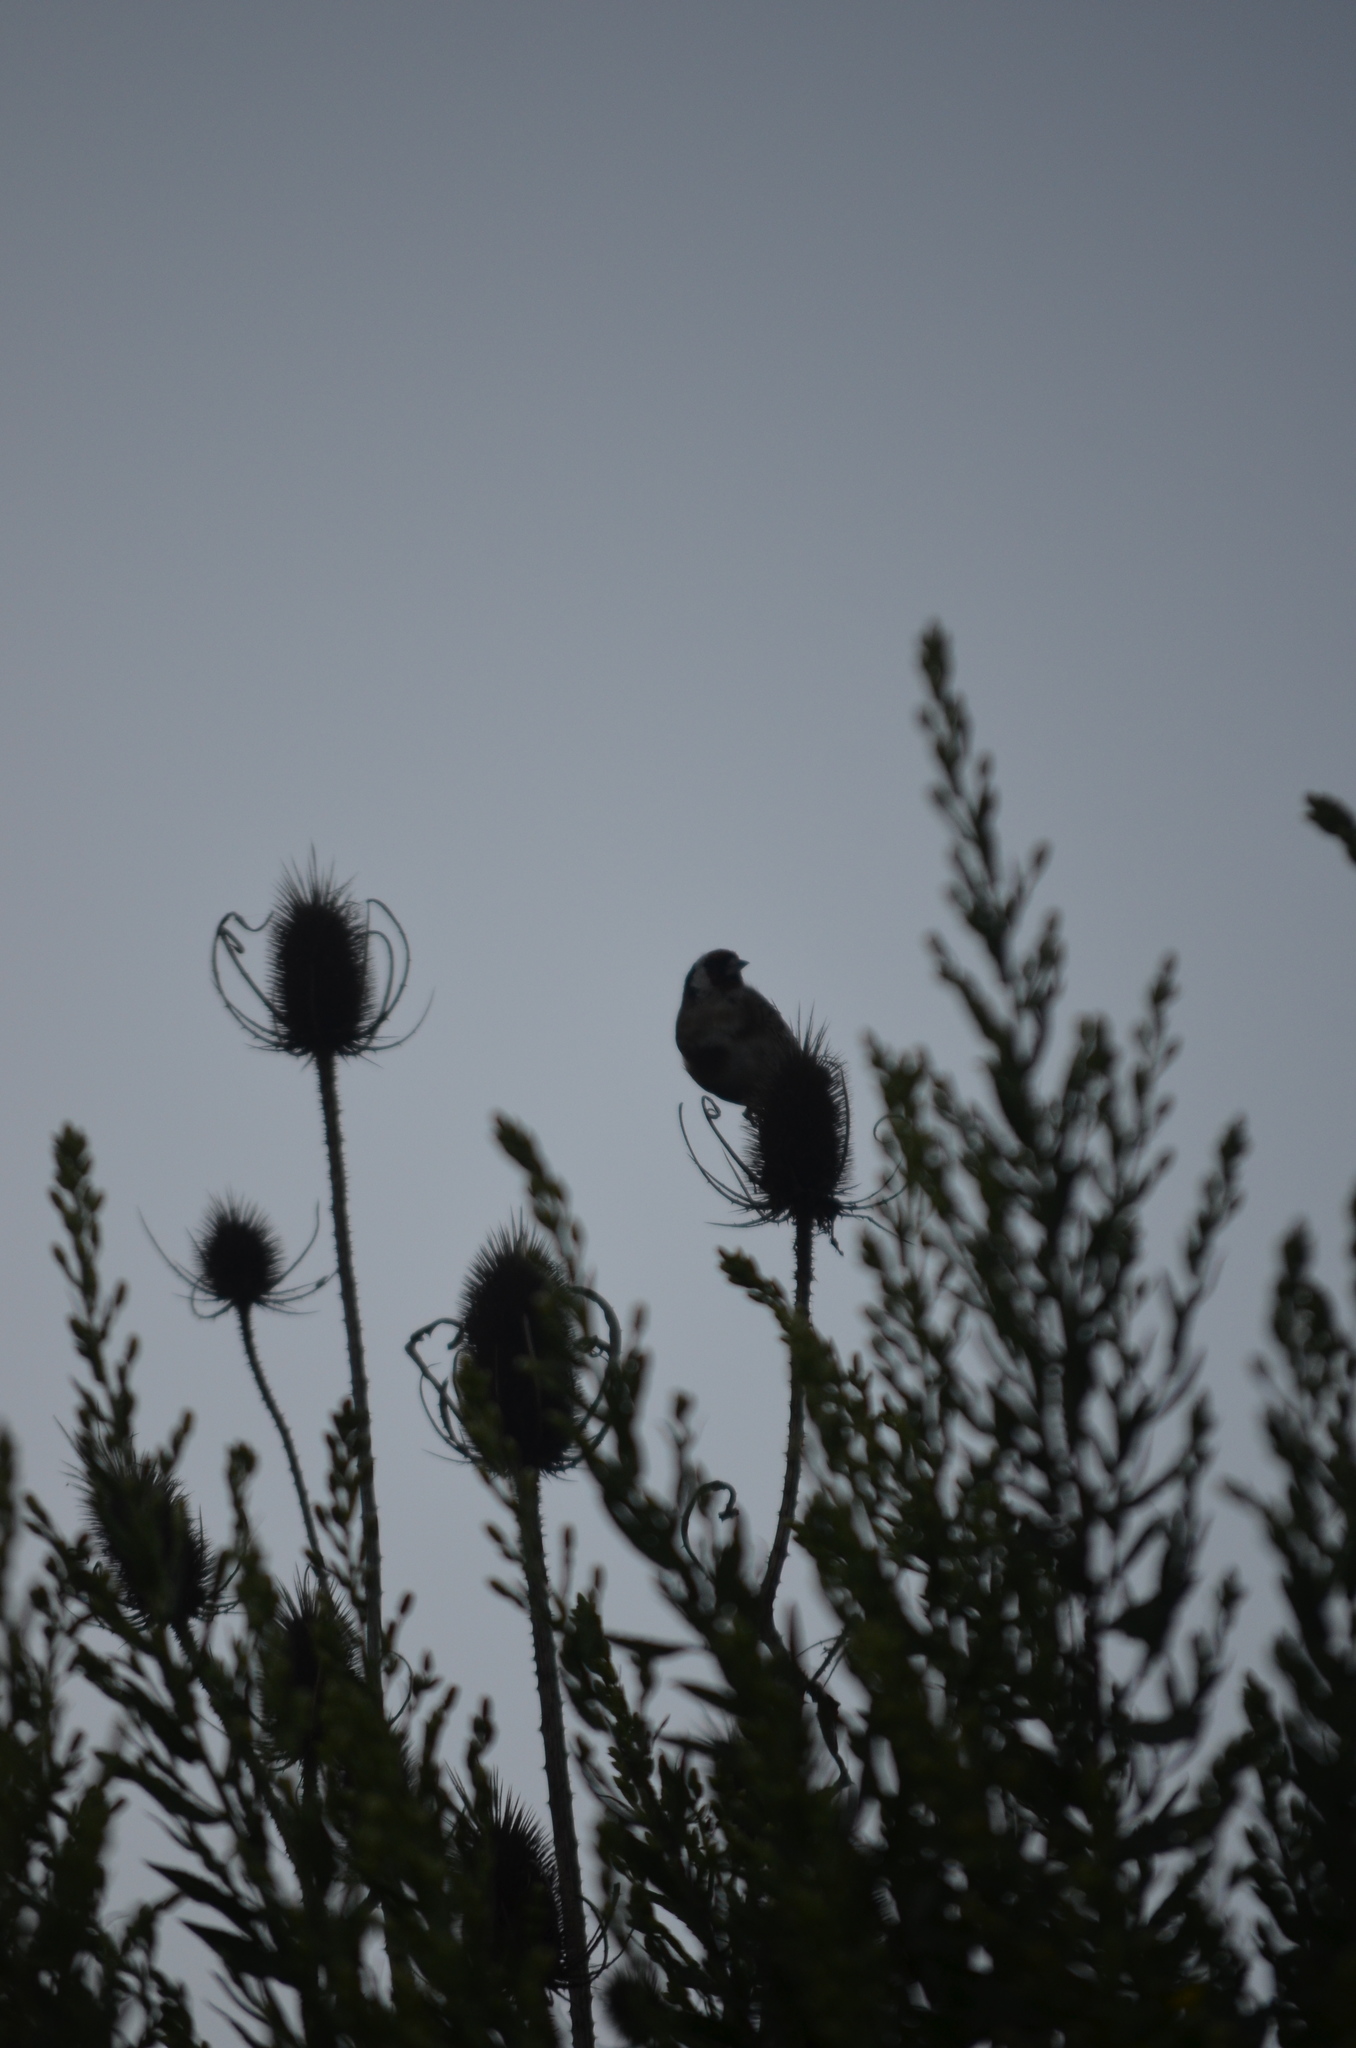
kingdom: Animalia
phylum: Chordata
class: Aves
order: Passeriformes
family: Fringillidae
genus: Carduelis
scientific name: Carduelis carduelis
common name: European goldfinch
